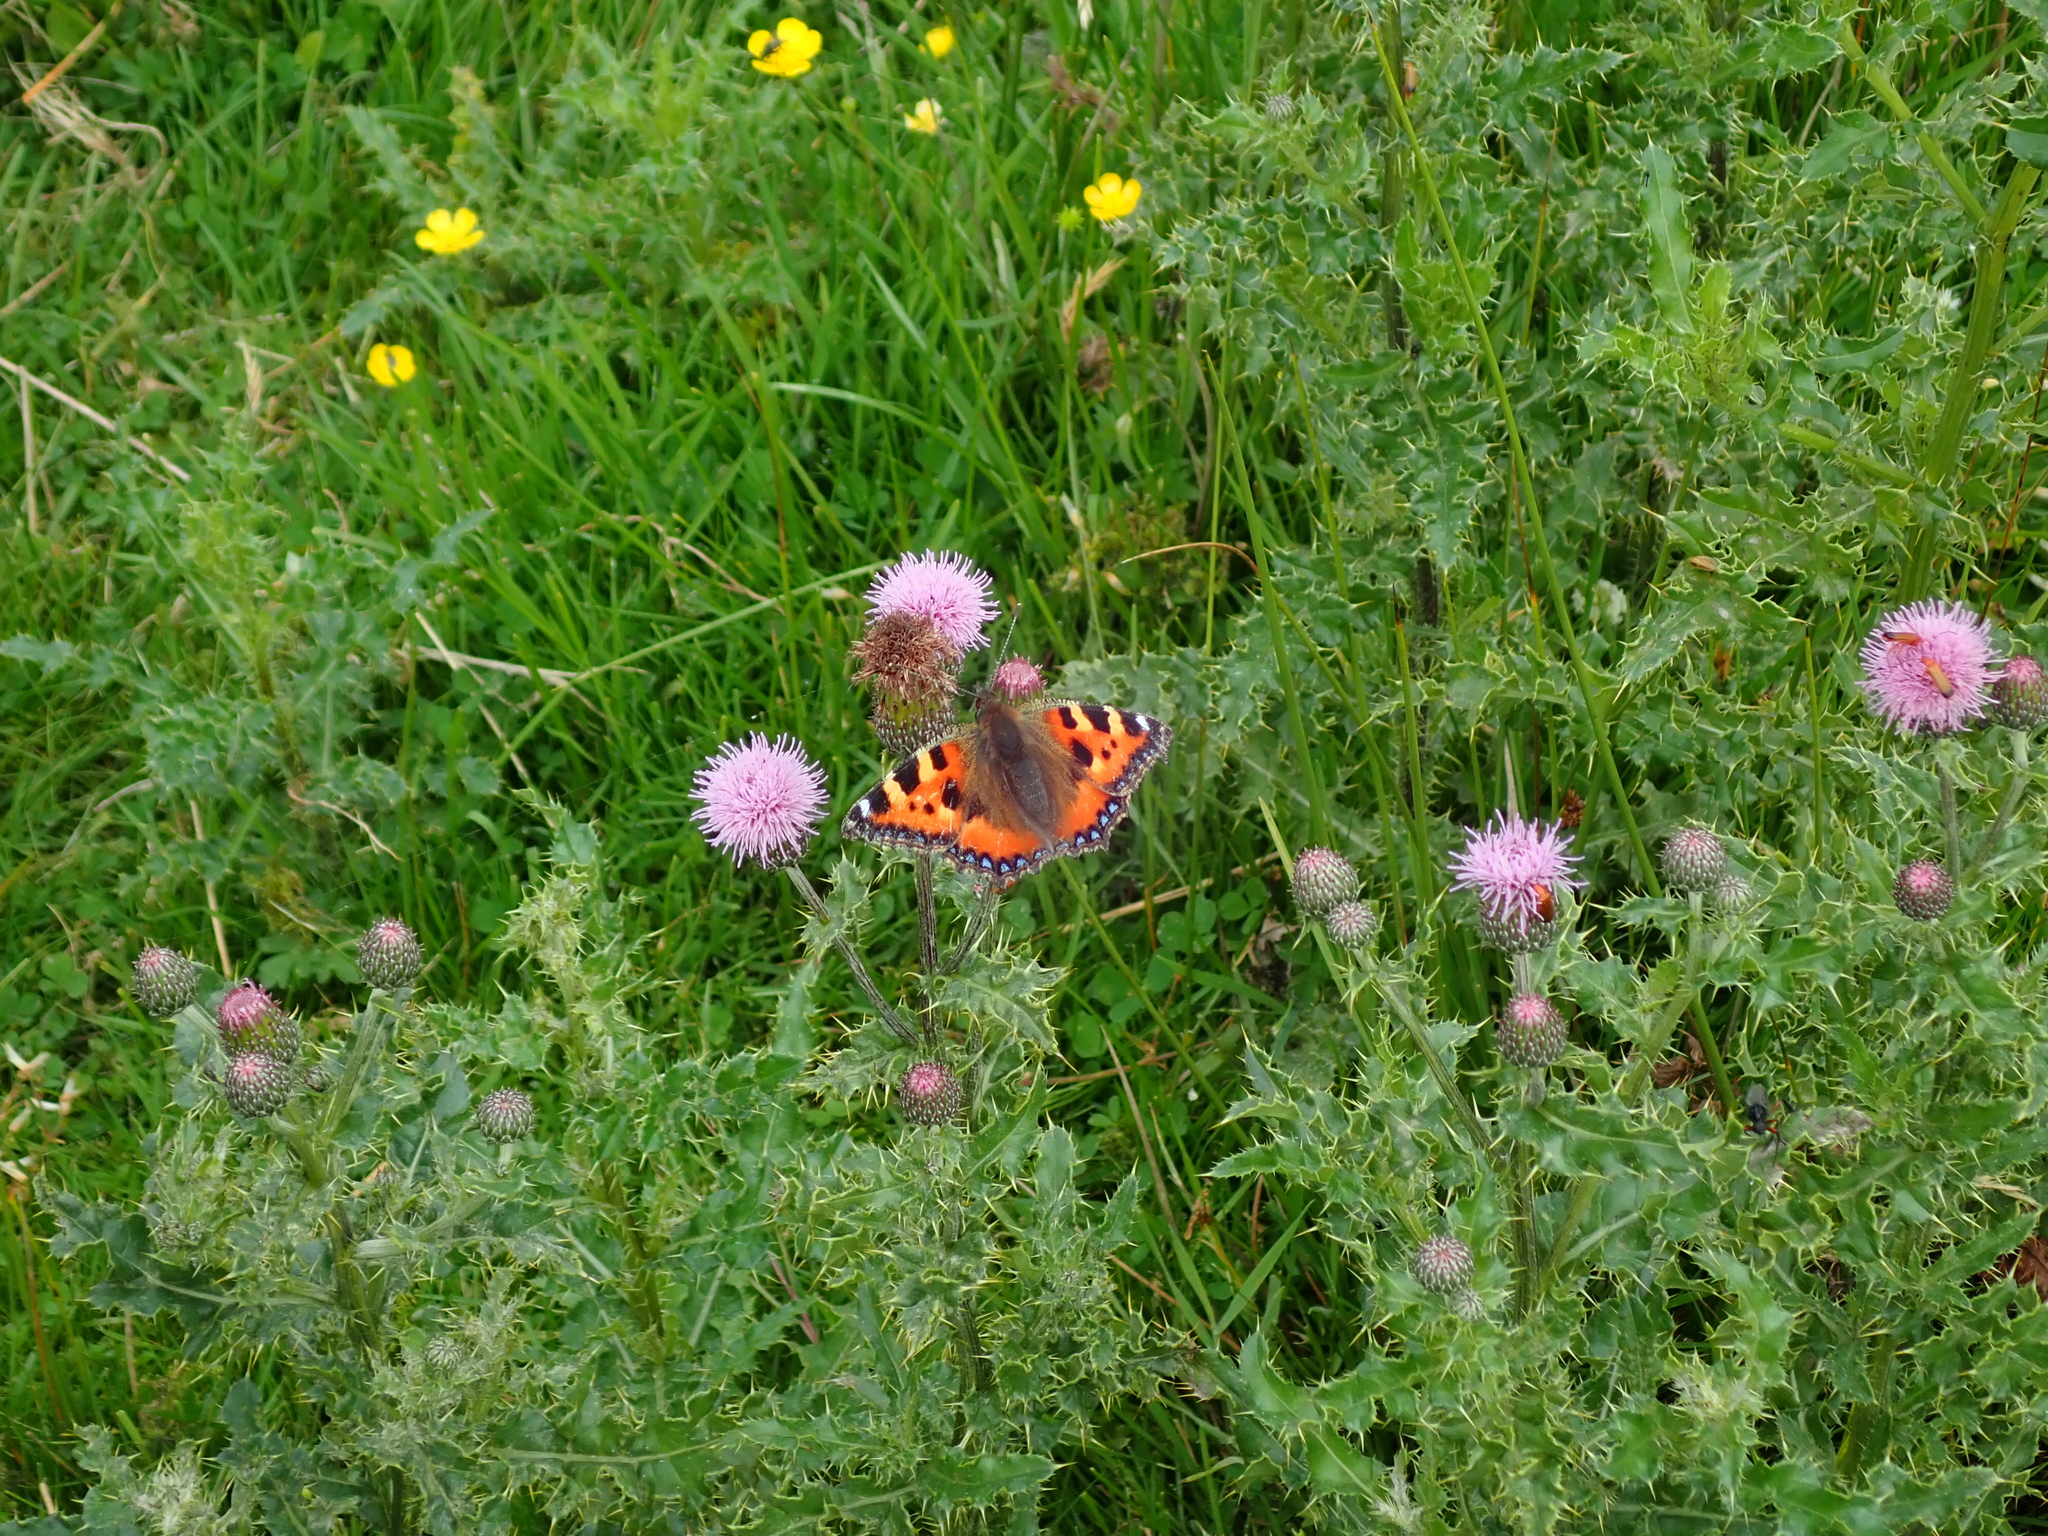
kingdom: Animalia
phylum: Arthropoda
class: Insecta
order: Lepidoptera
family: Nymphalidae
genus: Aglais
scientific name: Aglais urticae
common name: Small tortoiseshell
